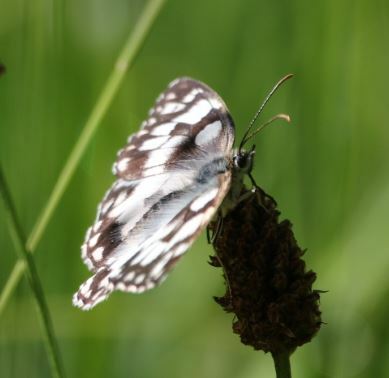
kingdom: Animalia
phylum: Arthropoda
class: Insecta
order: Lepidoptera
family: Nymphalidae
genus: Melanargia
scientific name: Melanargia galathea
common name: Marbled white
